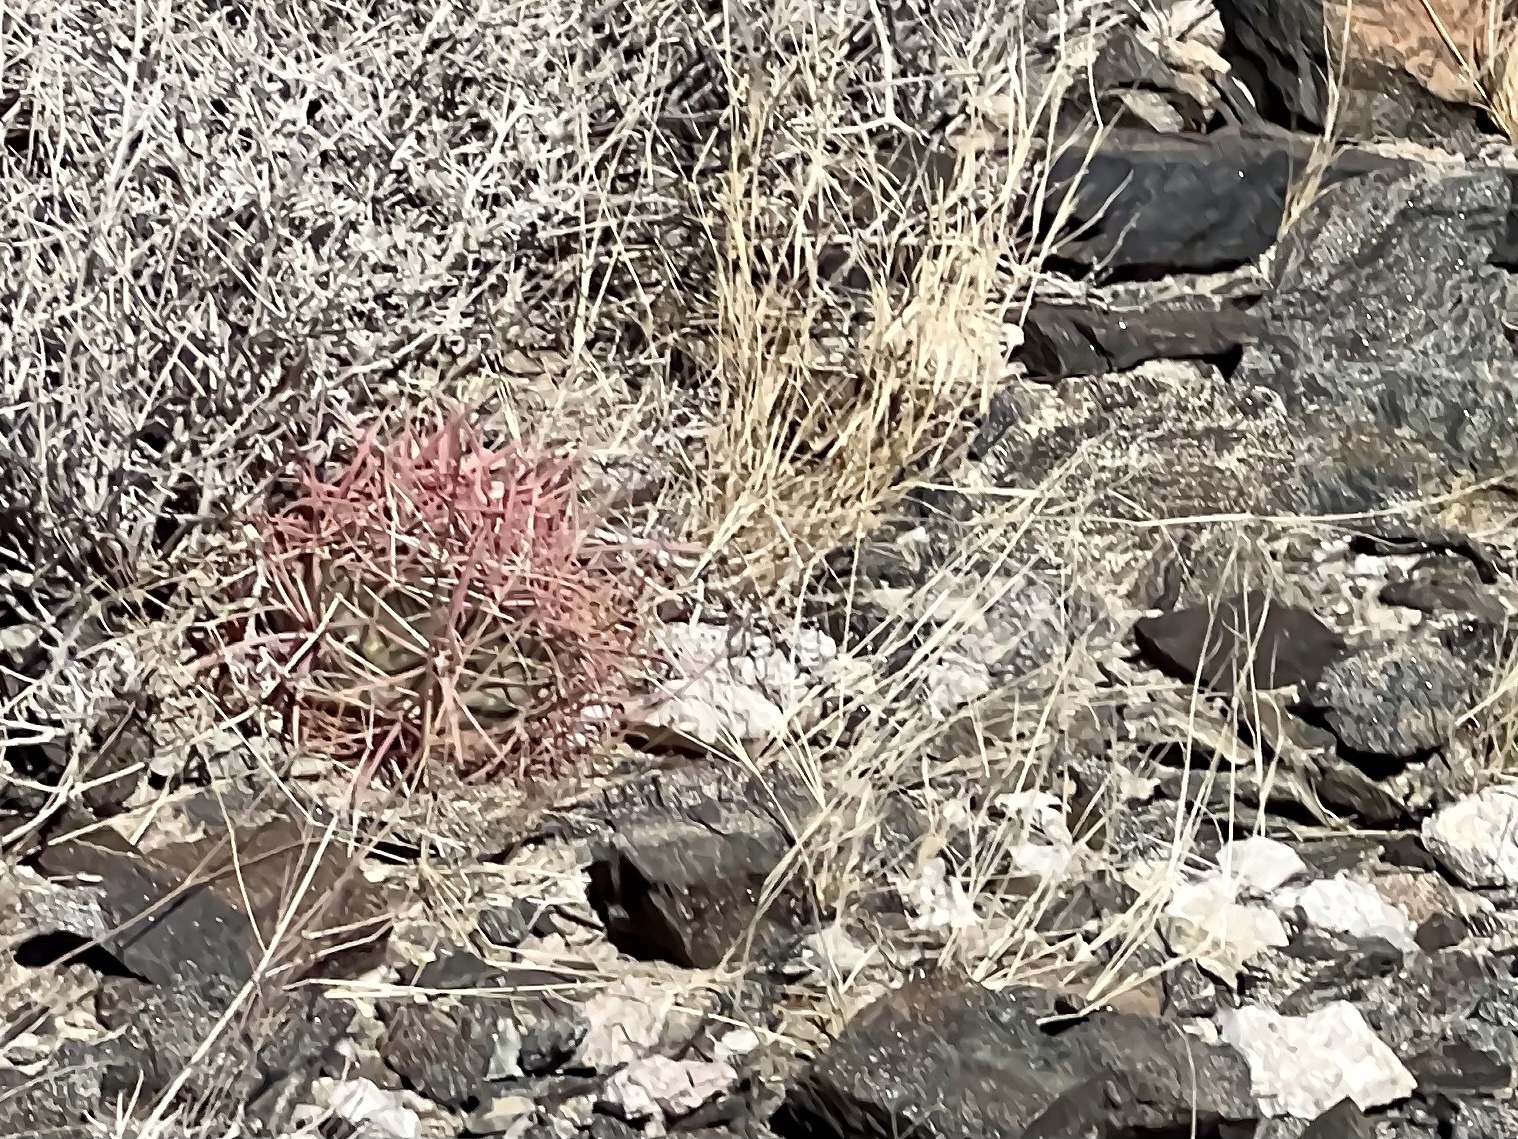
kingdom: Plantae
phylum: Tracheophyta
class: Magnoliopsida
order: Caryophyllales
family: Cactaceae
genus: Ferocactus
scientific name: Ferocactus cylindraceus
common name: California barrel cactus
